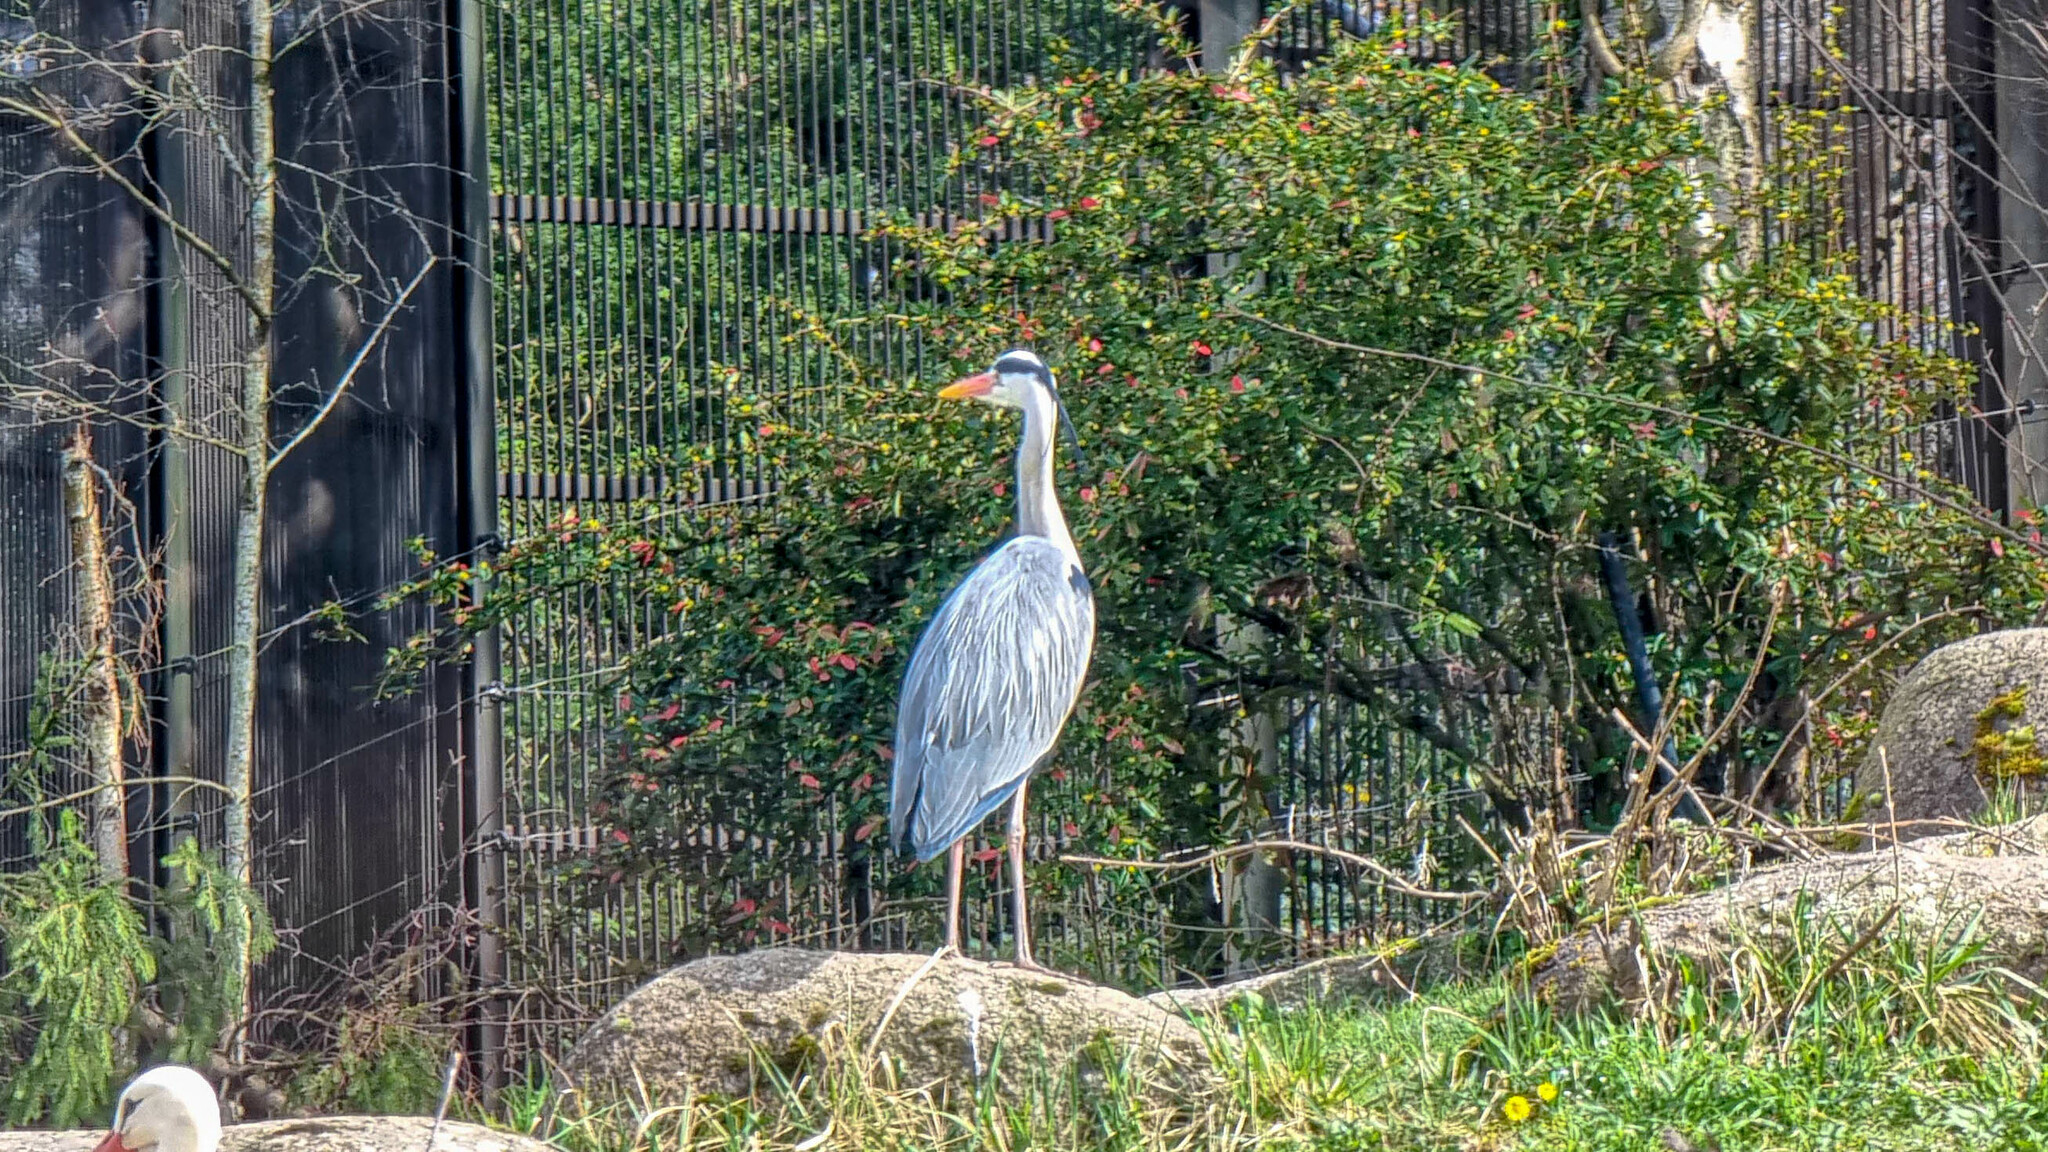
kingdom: Animalia
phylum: Chordata
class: Aves
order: Pelecaniformes
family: Ardeidae
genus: Ardea
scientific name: Ardea cinerea
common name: Grey heron
